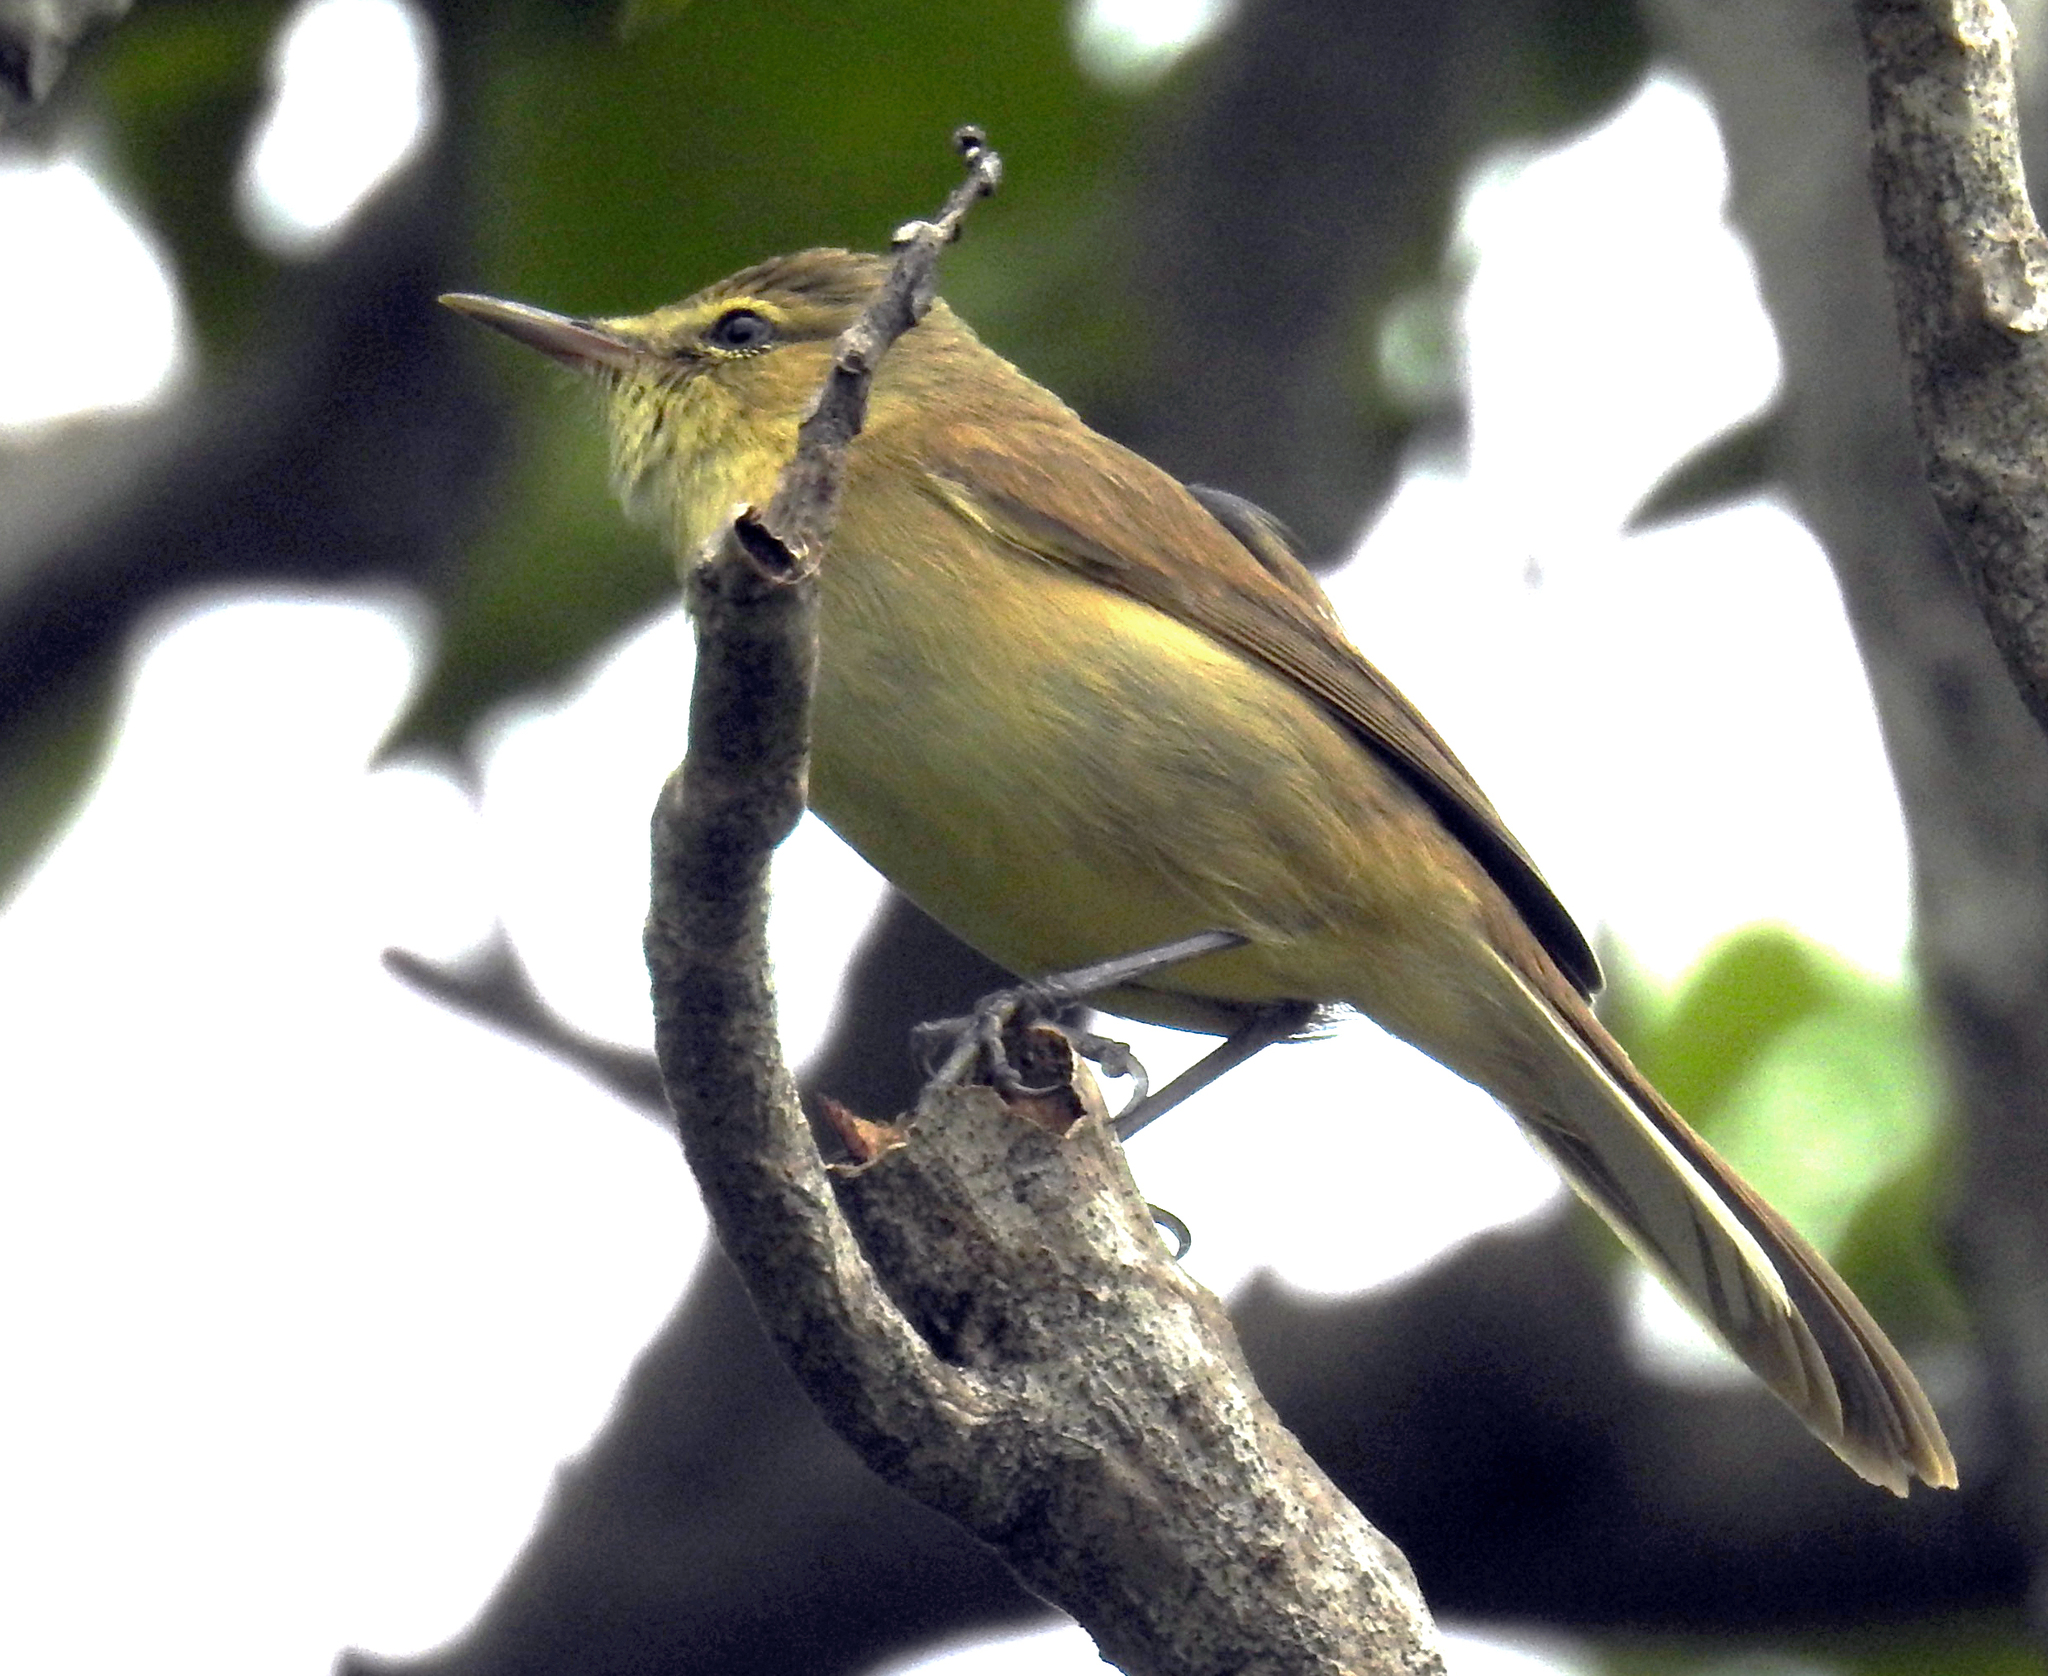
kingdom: Animalia
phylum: Chordata
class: Aves
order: Passeriformes
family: Acrocephalidae
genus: Acrocephalus
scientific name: Acrocephalus kerearako
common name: Cook reed warbler
